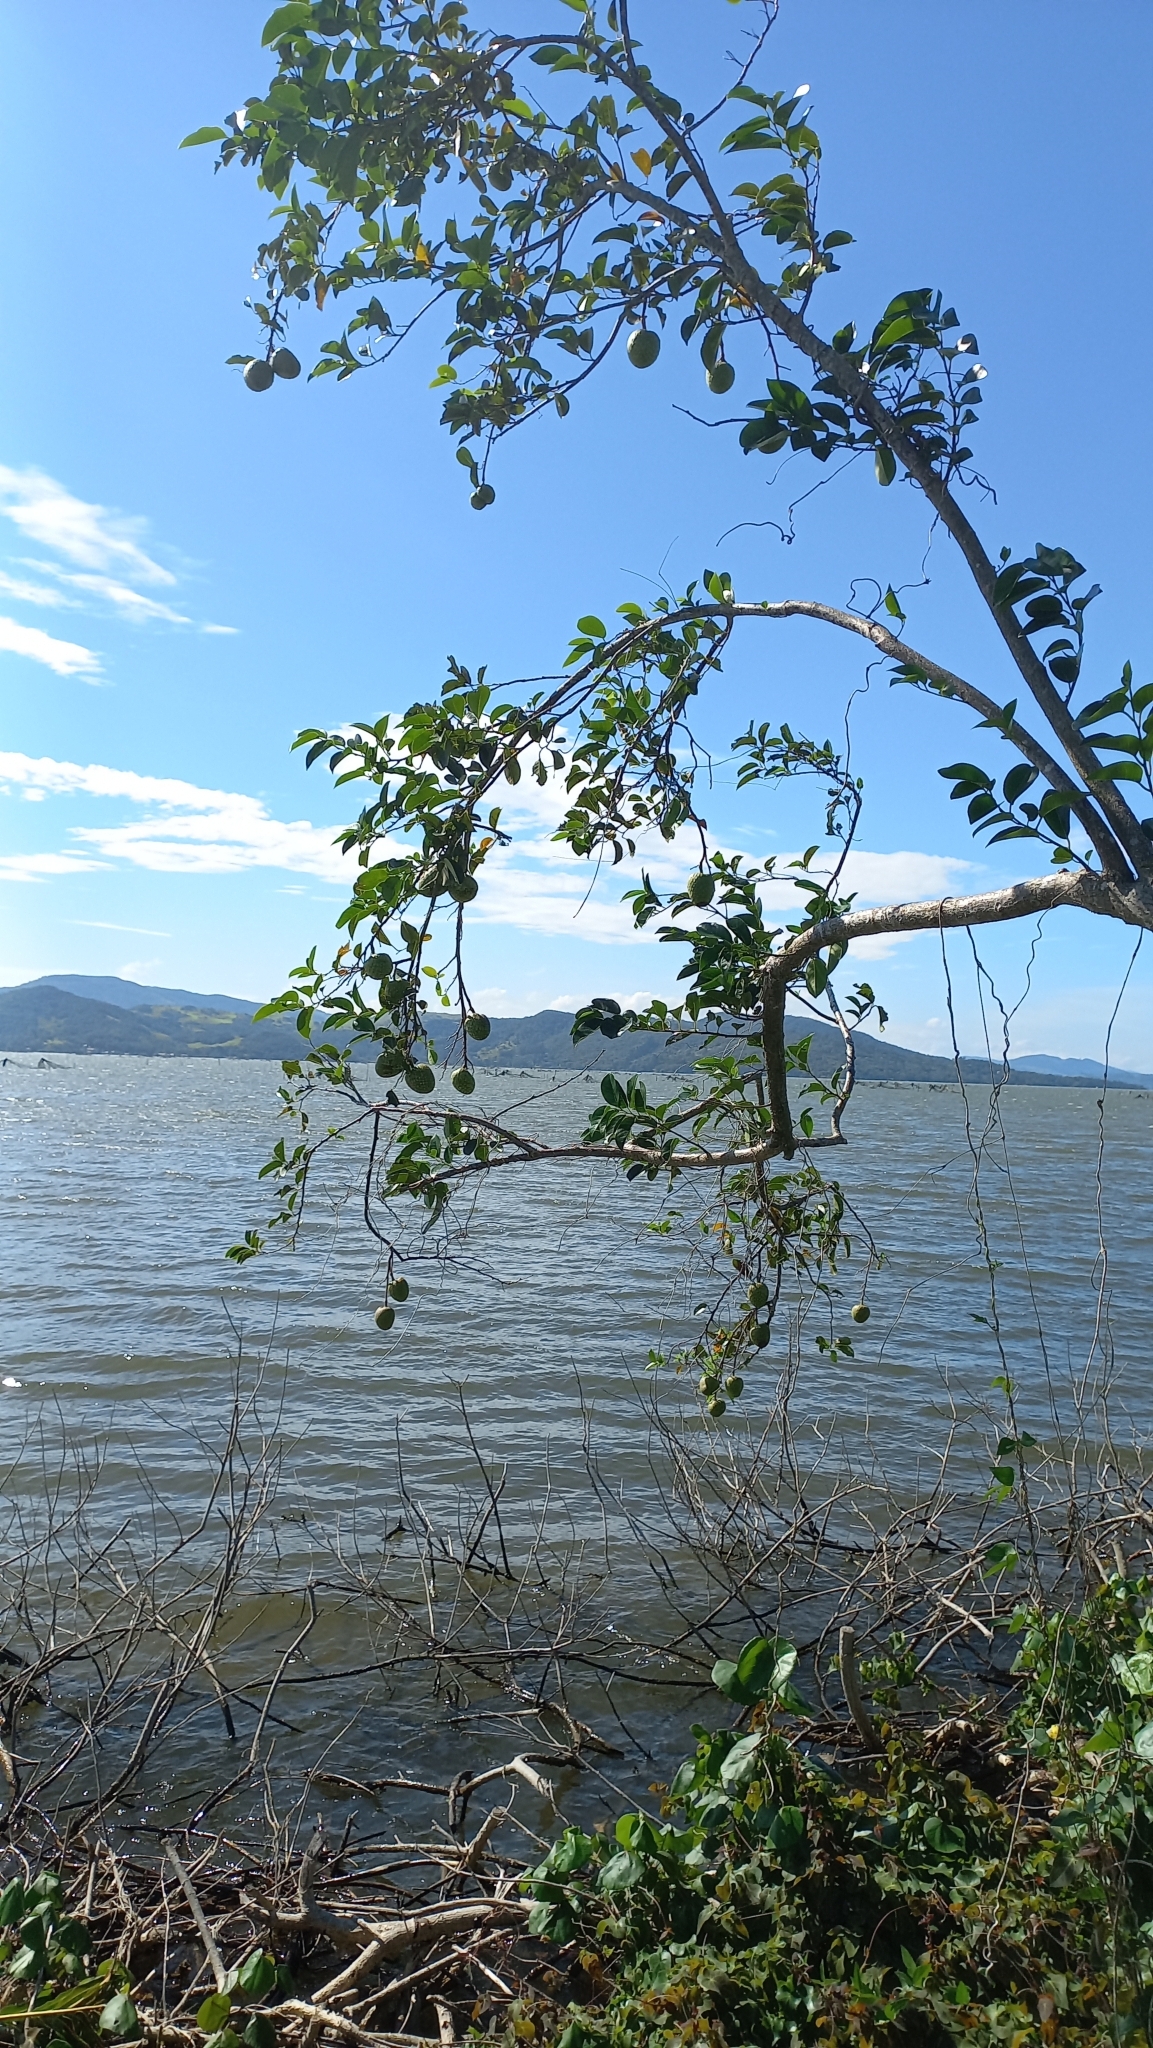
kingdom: Plantae
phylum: Tracheophyta
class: Magnoliopsida
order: Magnoliales
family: Annonaceae
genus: Annona
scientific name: Annona glabra
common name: Monkey apple
